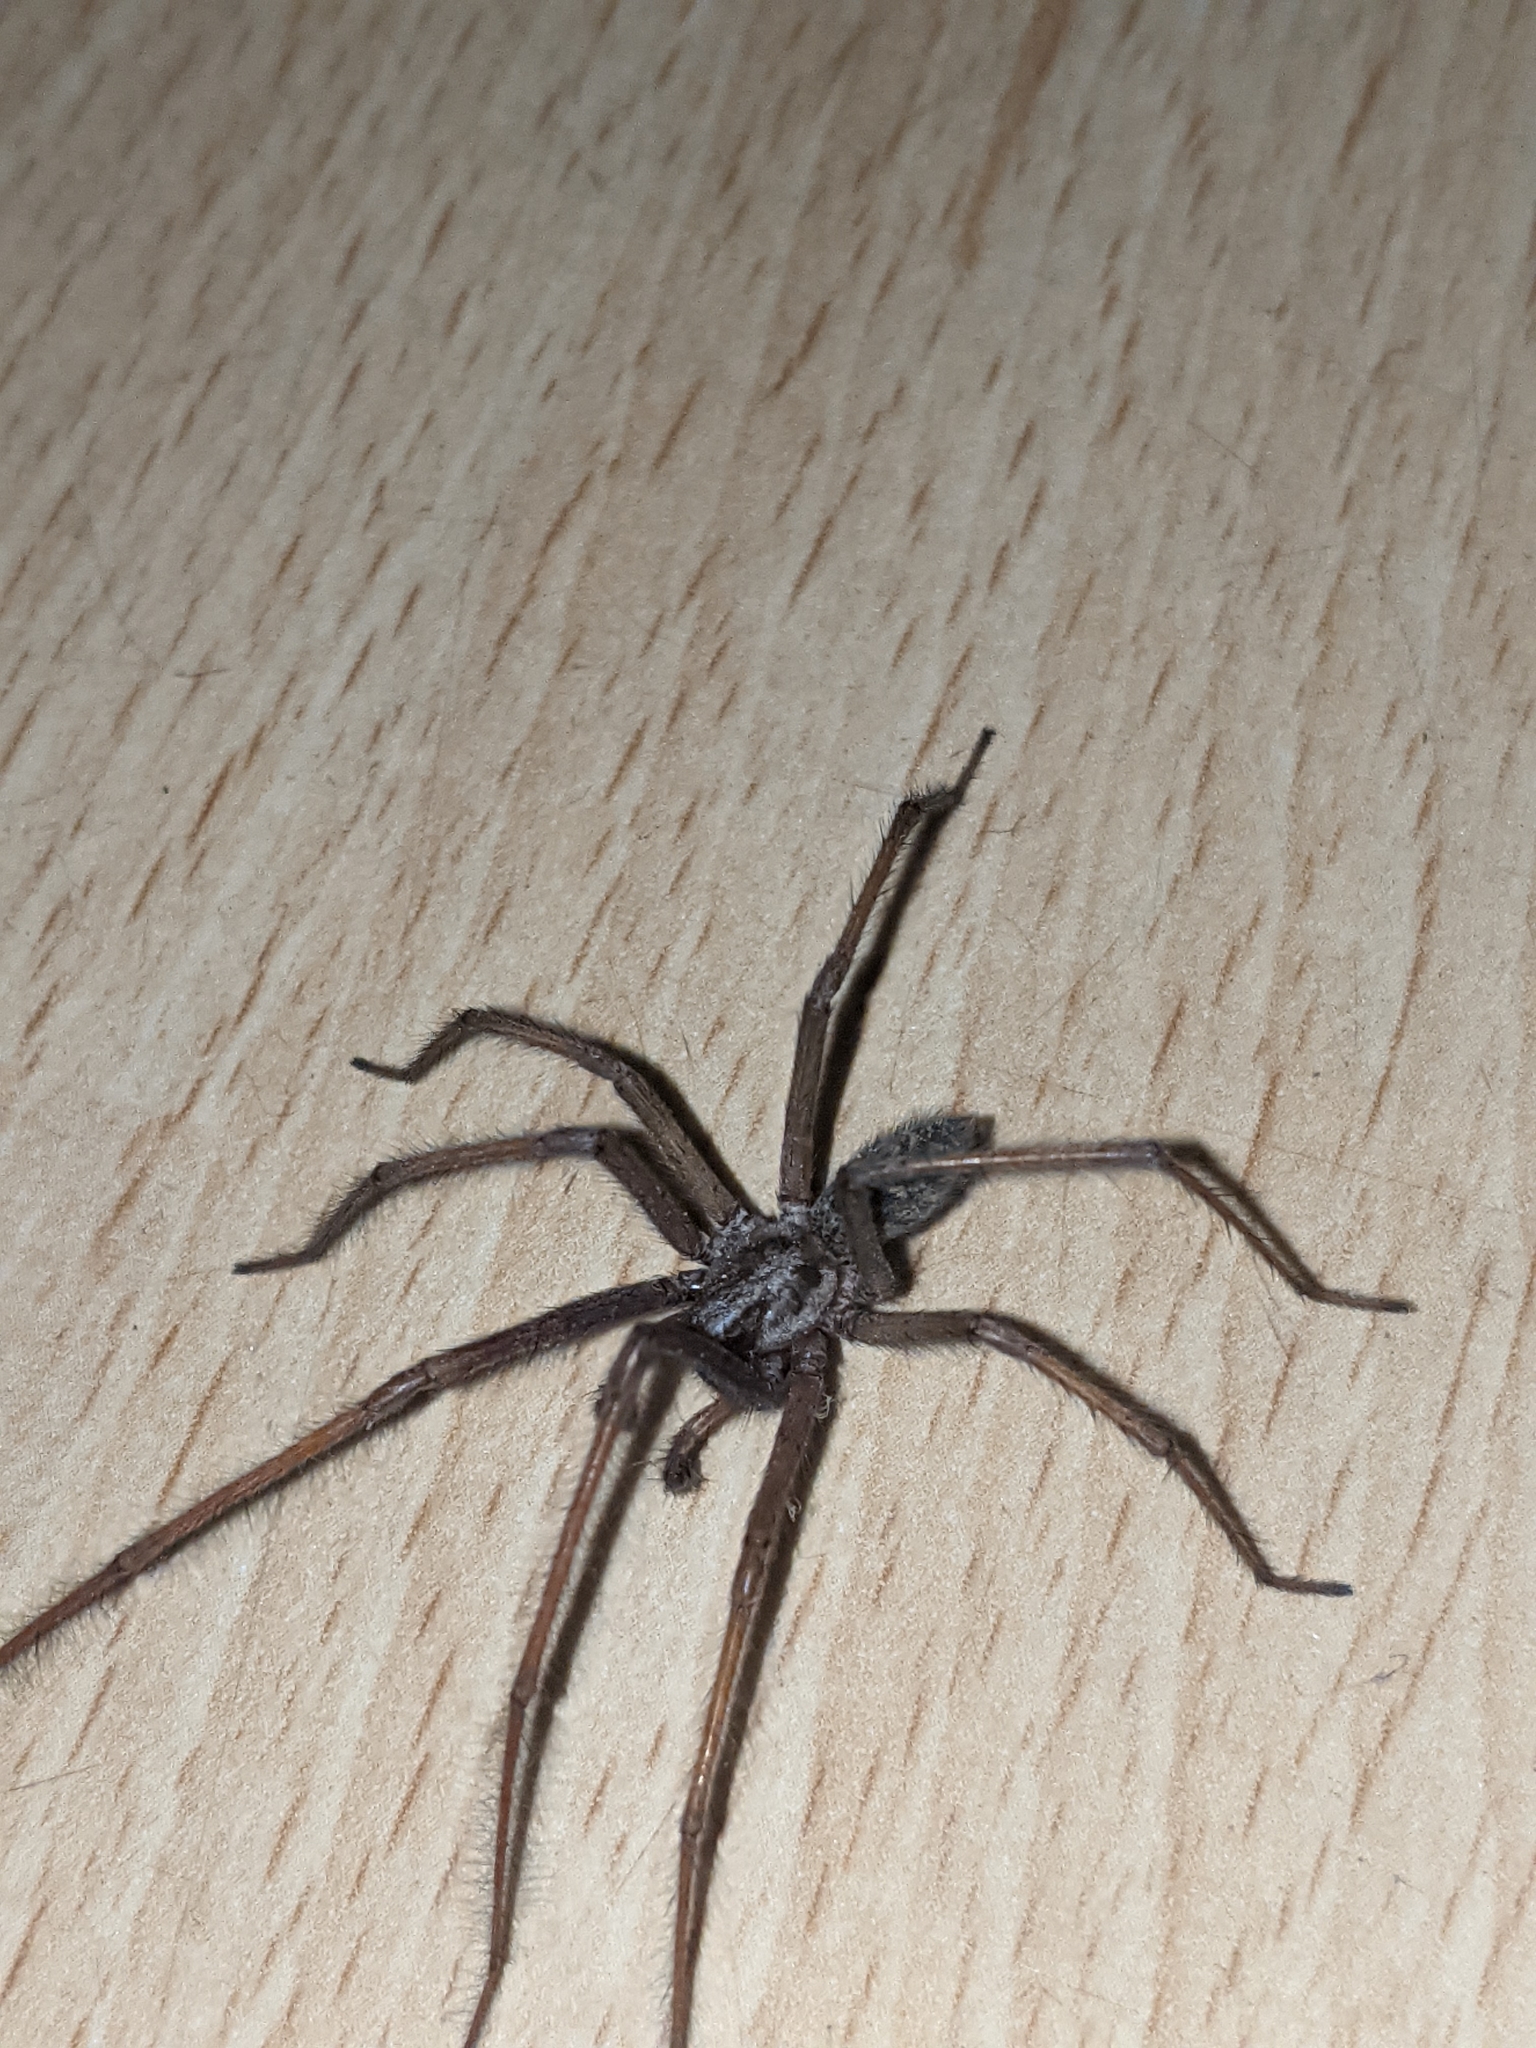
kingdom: Animalia
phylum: Arthropoda
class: Arachnida
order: Araneae
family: Agelenidae
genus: Eratigena
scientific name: Eratigena atrica
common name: Giant house spider
